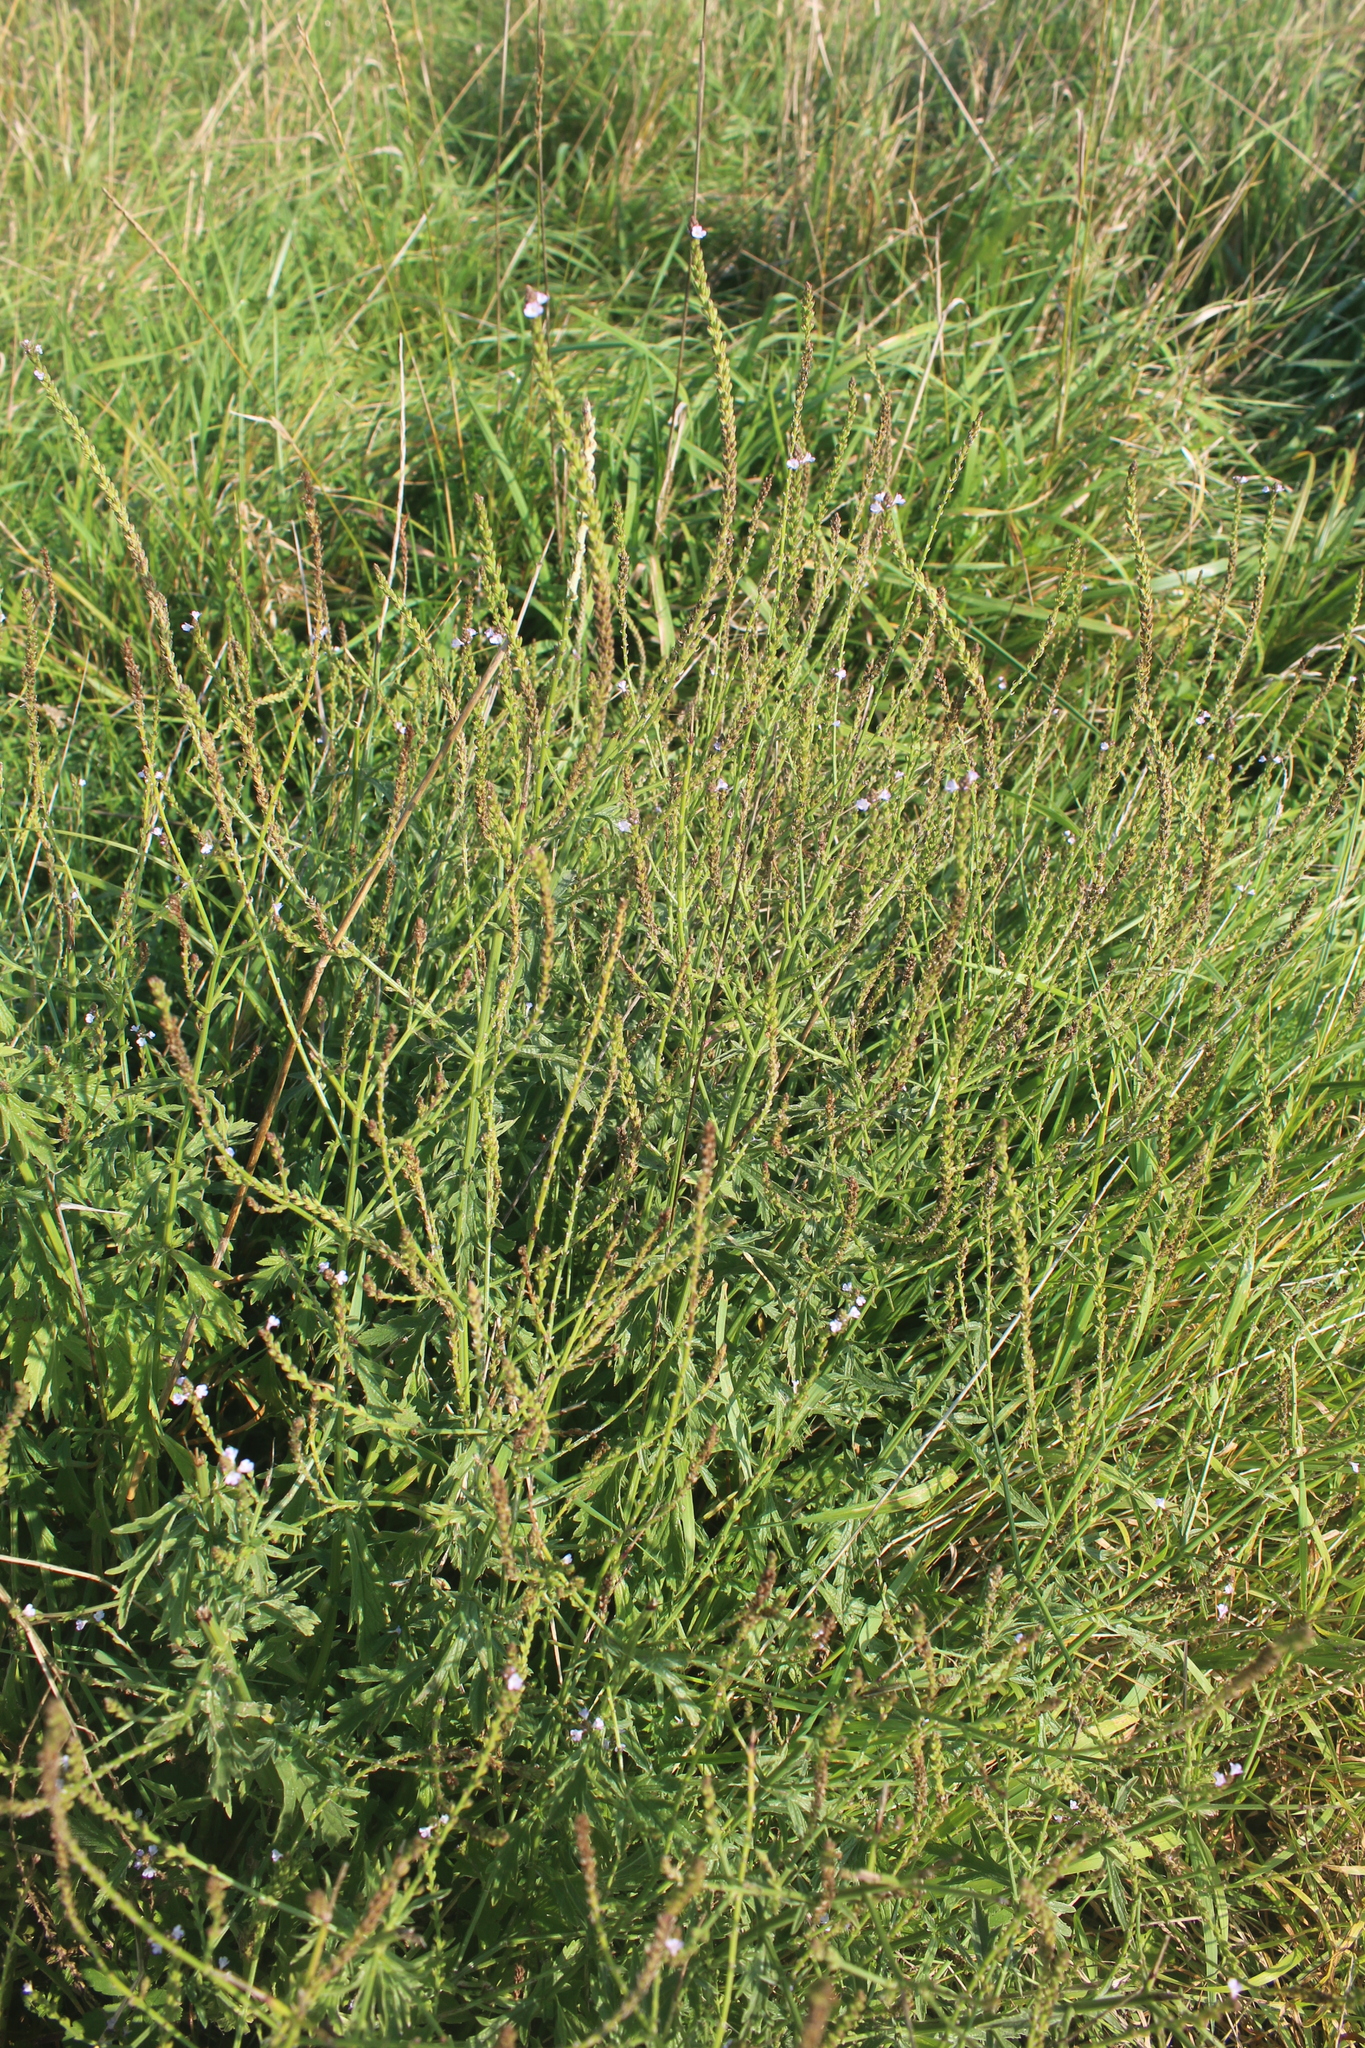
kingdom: Plantae
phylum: Tracheophyta
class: Magnoliopsida
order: Lamiales
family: Verbenaceae
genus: Verbena
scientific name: Verbena officinalis
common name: Vervain
